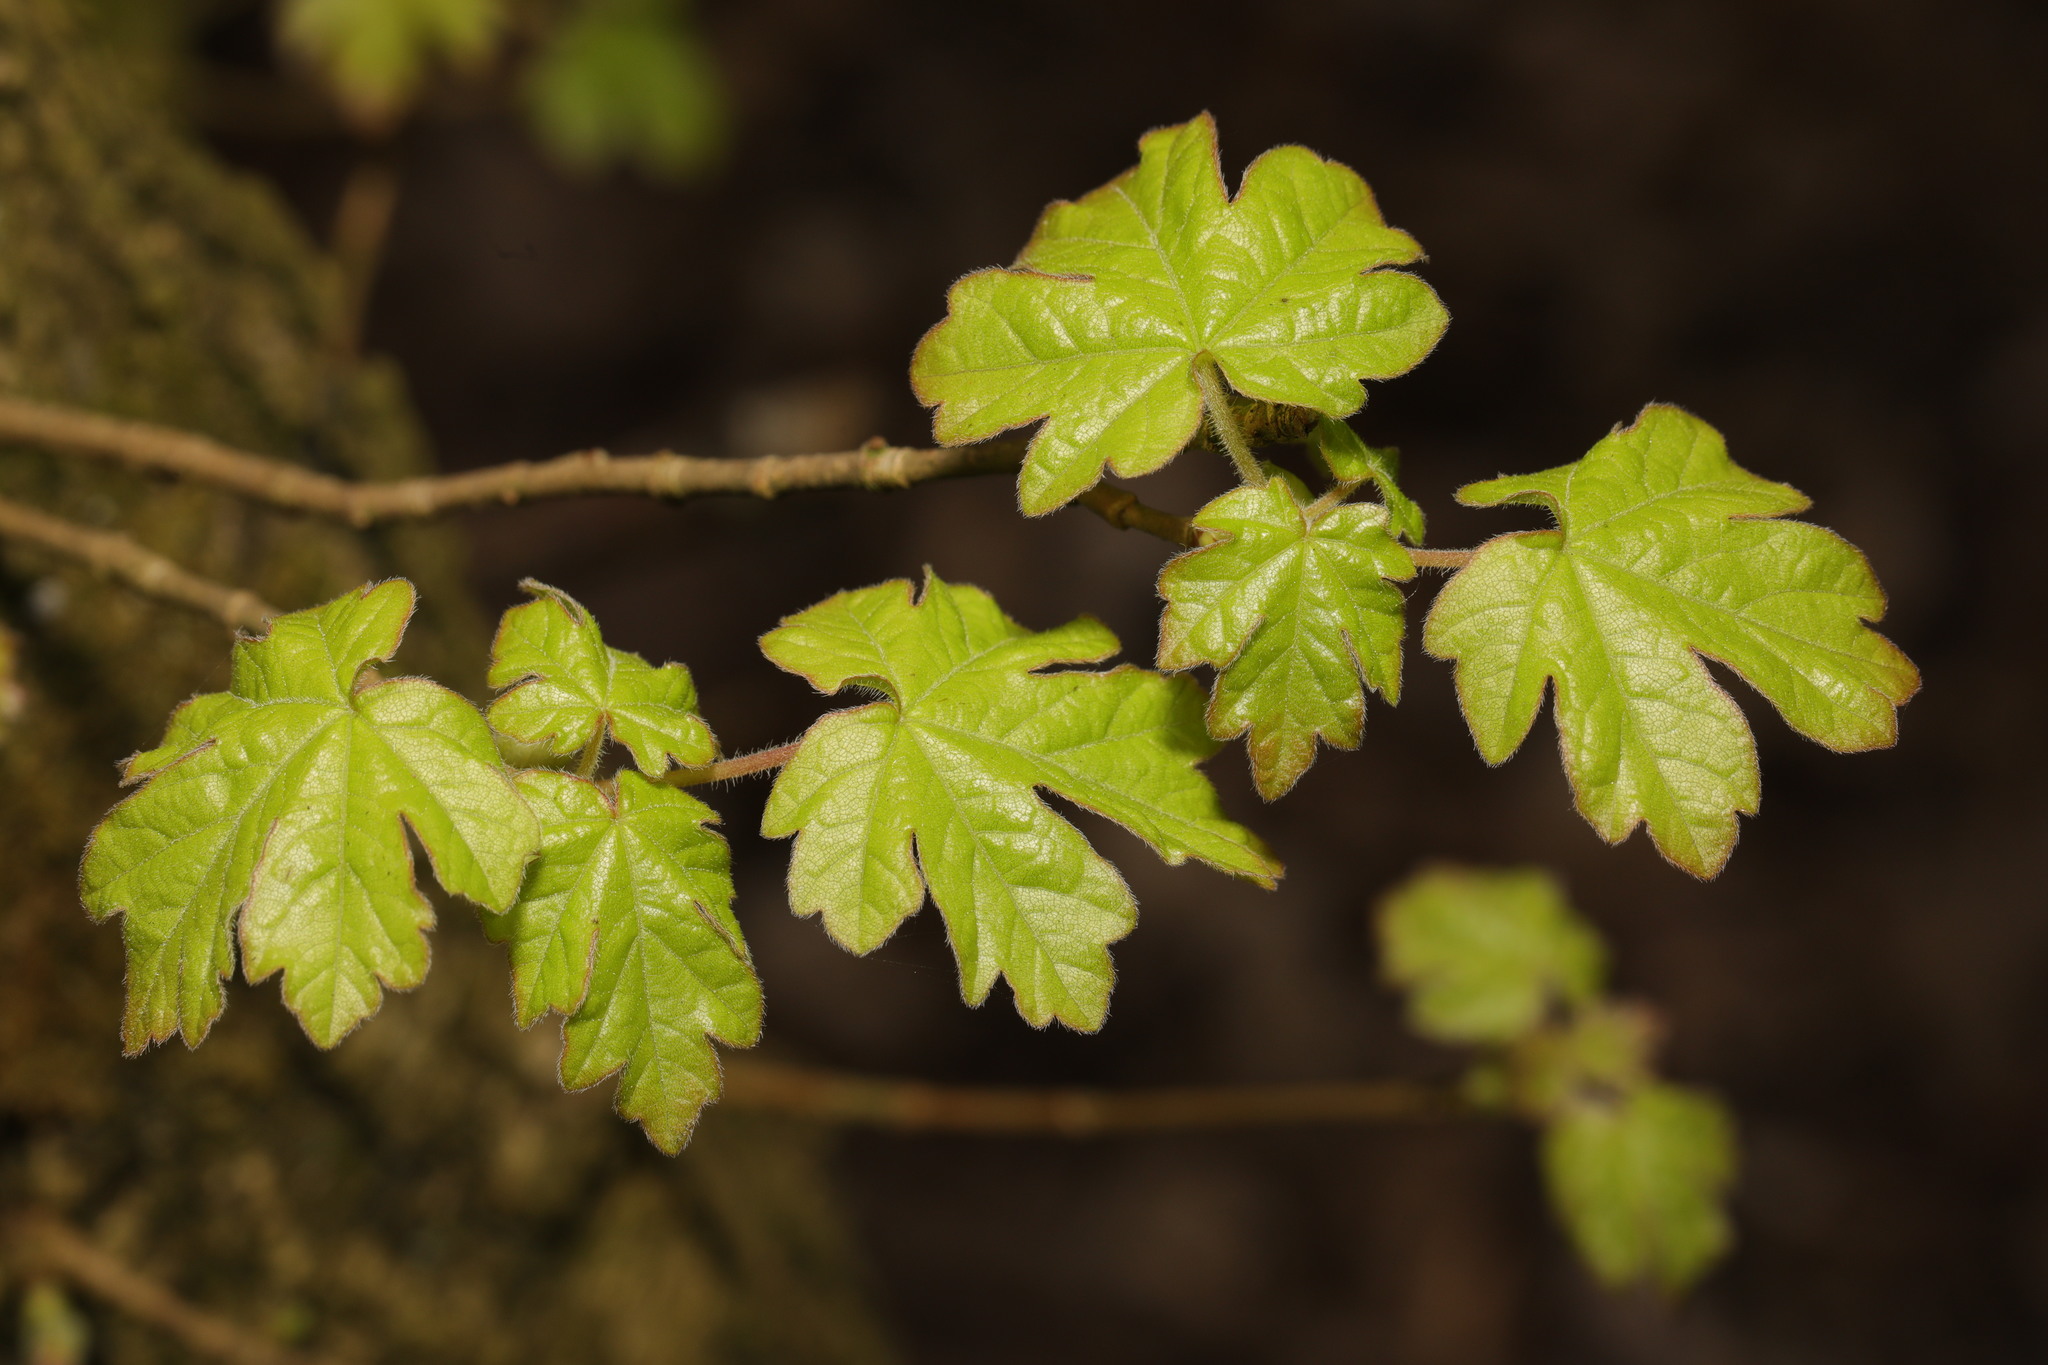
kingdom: Plantae
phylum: Tracheophyta
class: Magnoliopsida
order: Sapindales
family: Sapindaceae
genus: Acer
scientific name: Acer campestre
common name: Field maple
